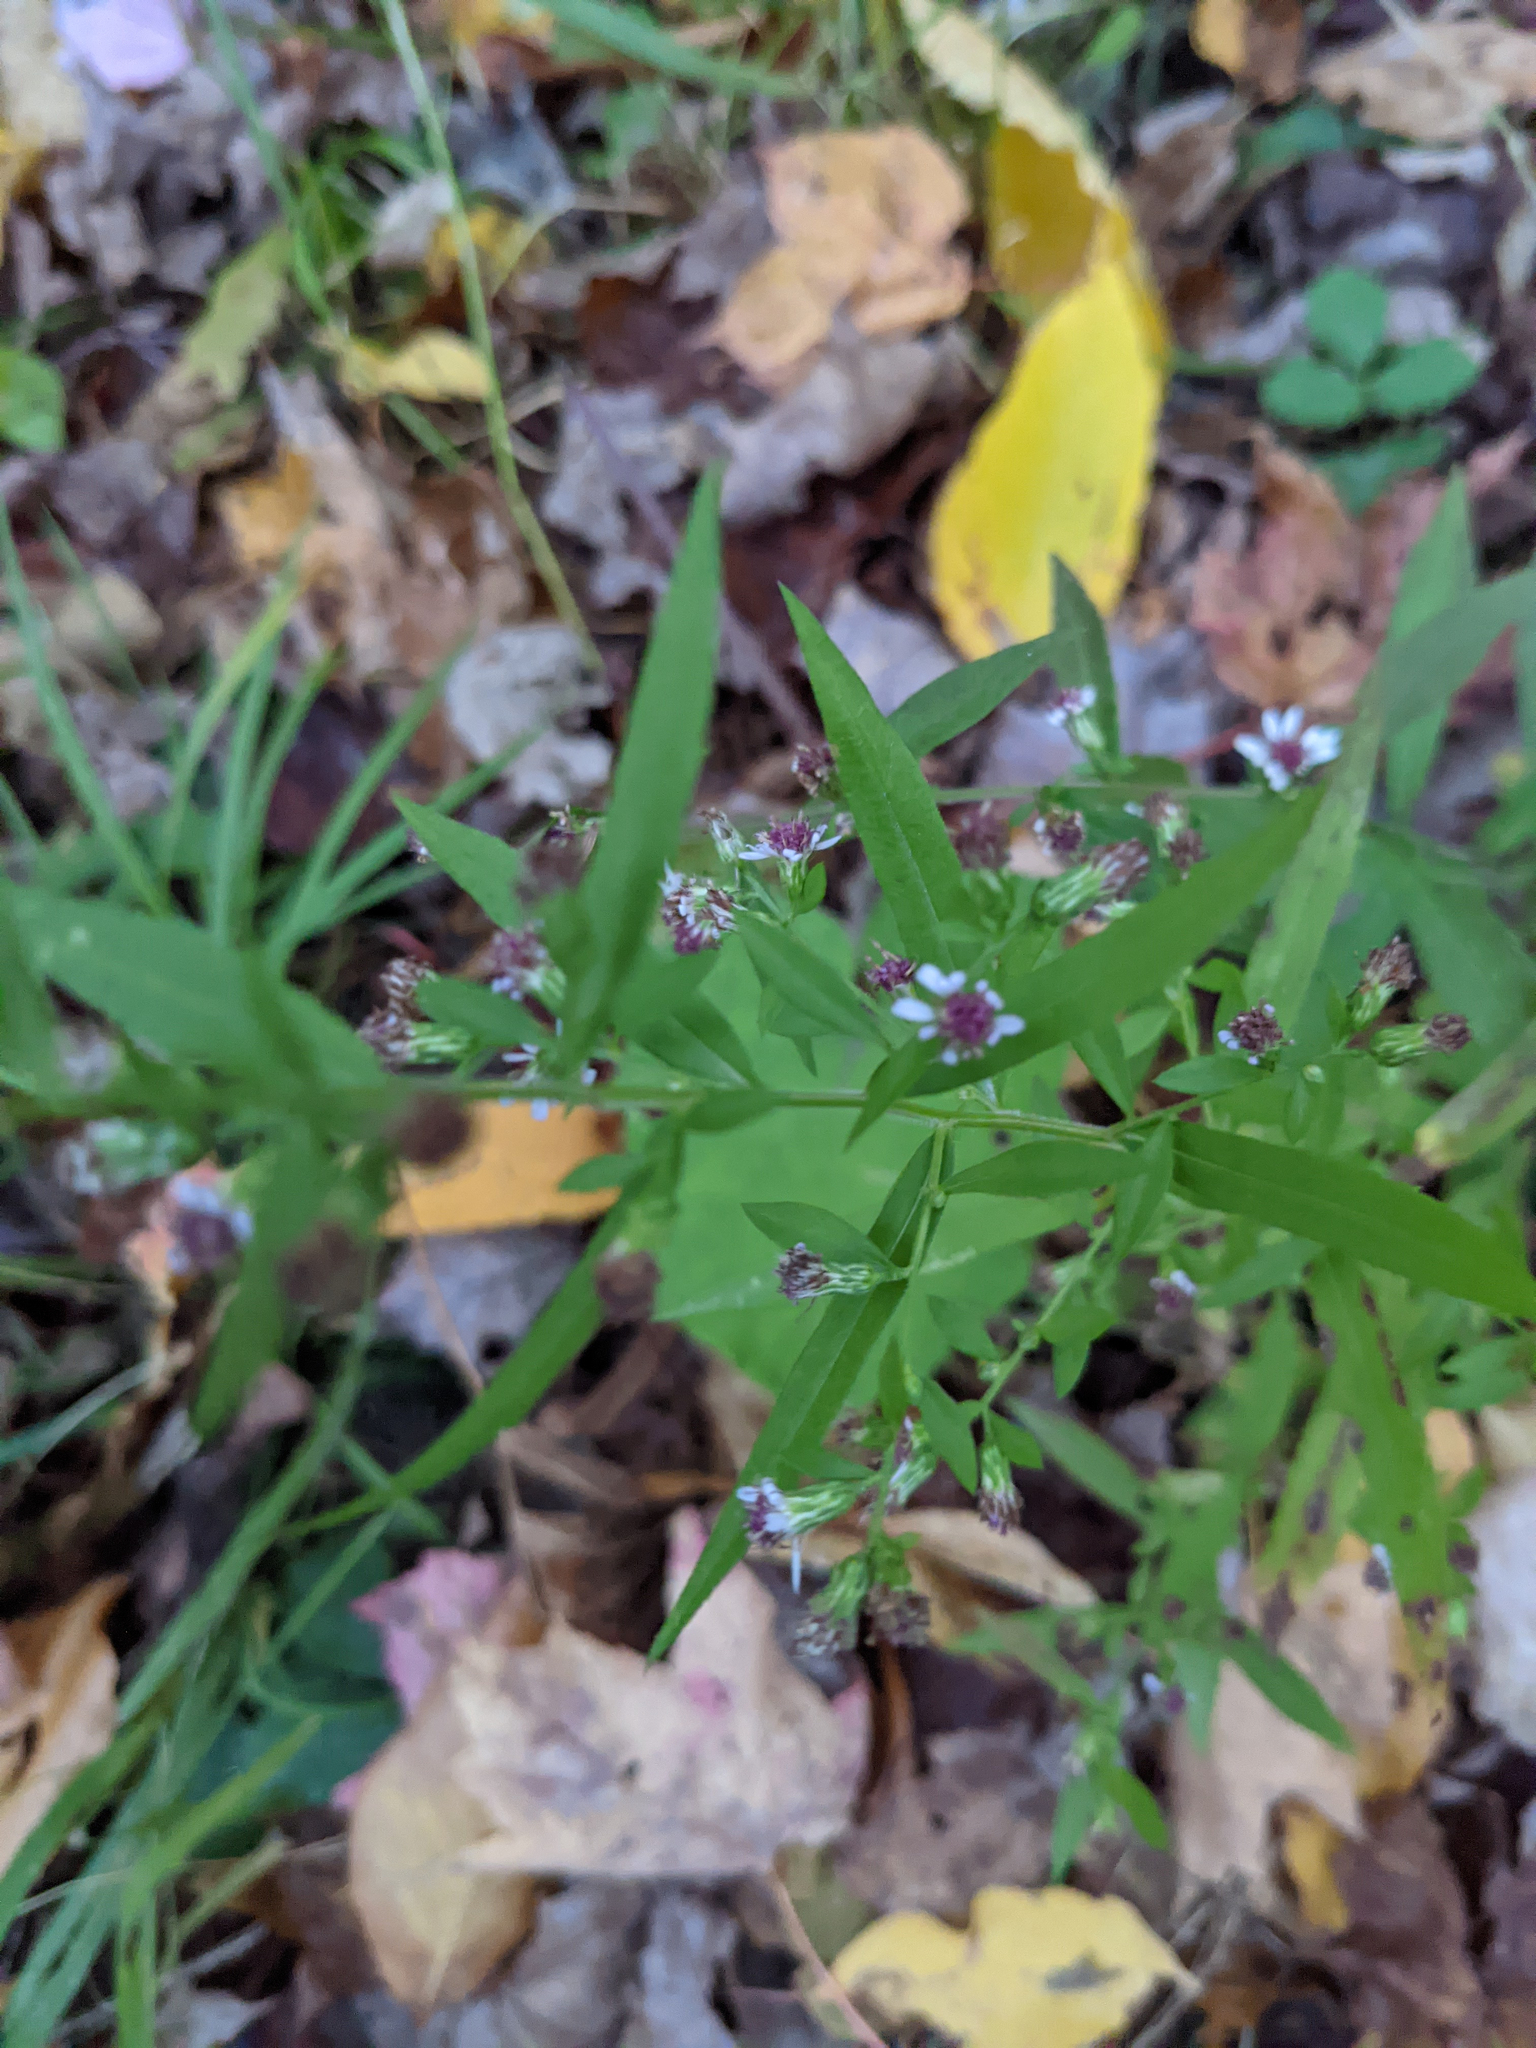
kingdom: Plantae
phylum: Tracheophyta
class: Magnoliopsida
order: Asterales
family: Asteraceae
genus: Symphyotrichum
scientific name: Symphyotrichum lateriflorum
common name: Calico aster
